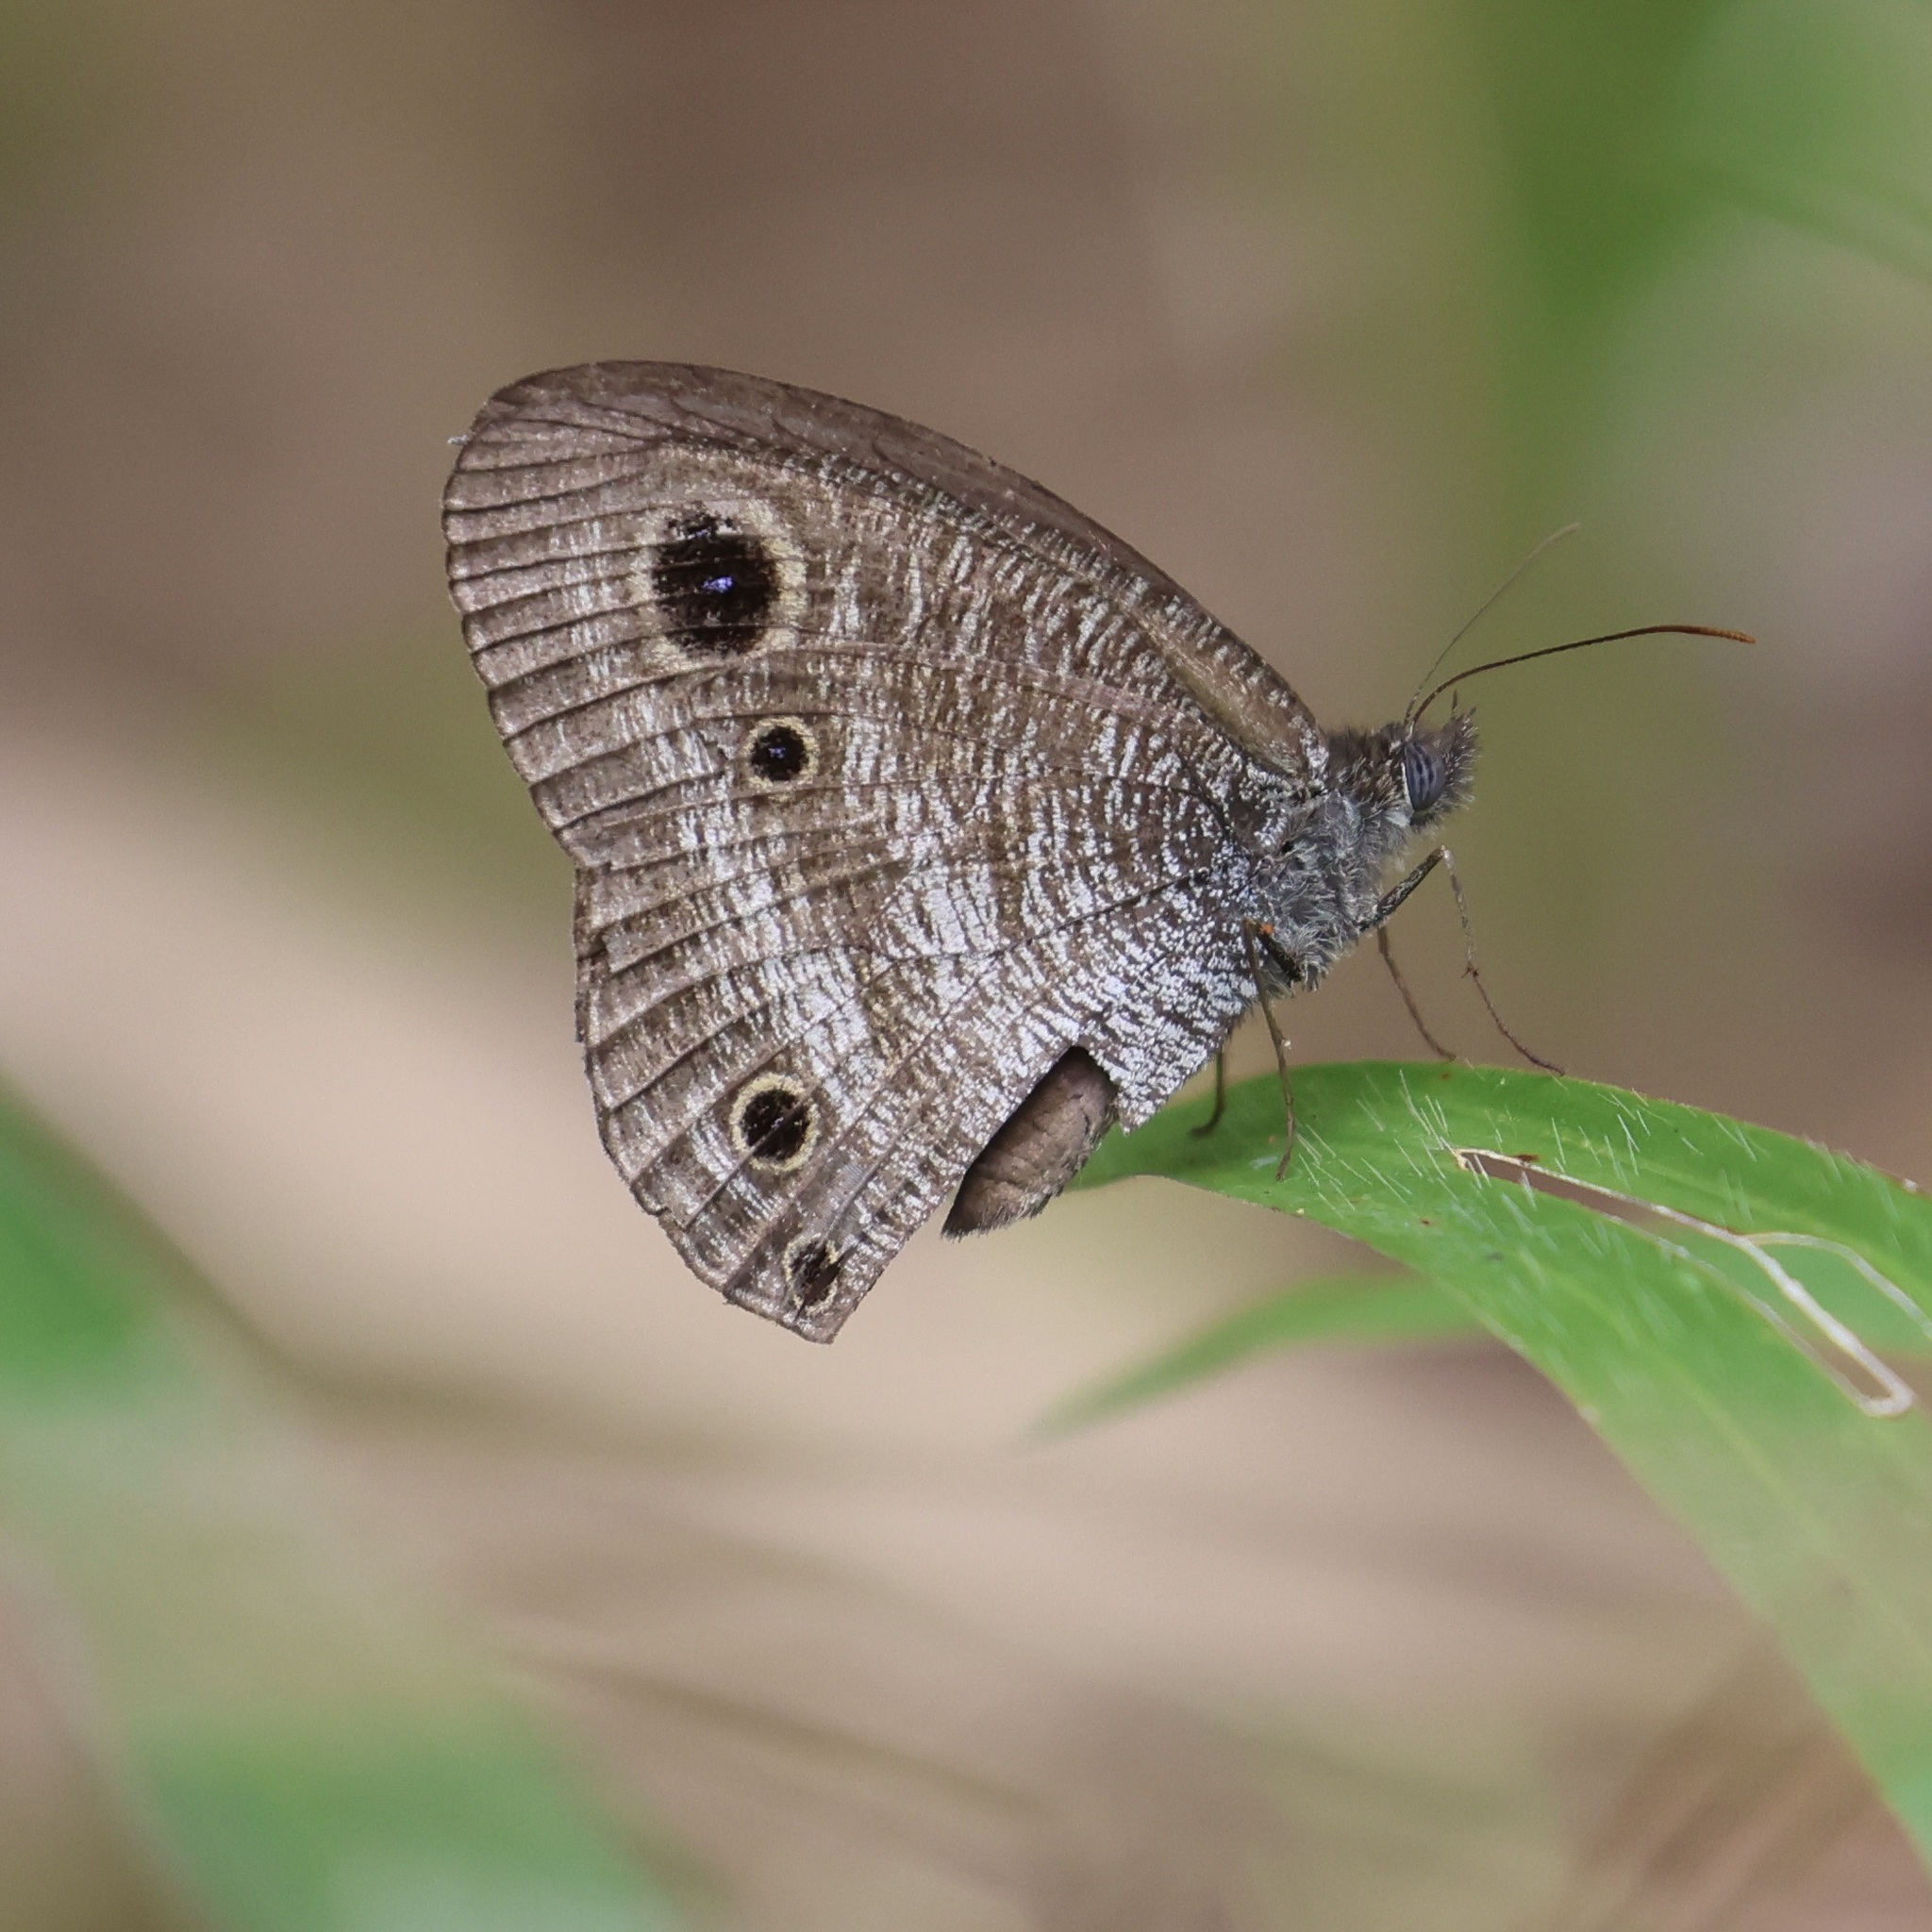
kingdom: Animalia
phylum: Arthropoda
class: Insecta
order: Lepidoptera
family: Nymphalidae
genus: Ypthima
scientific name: Ypthima pandocus
